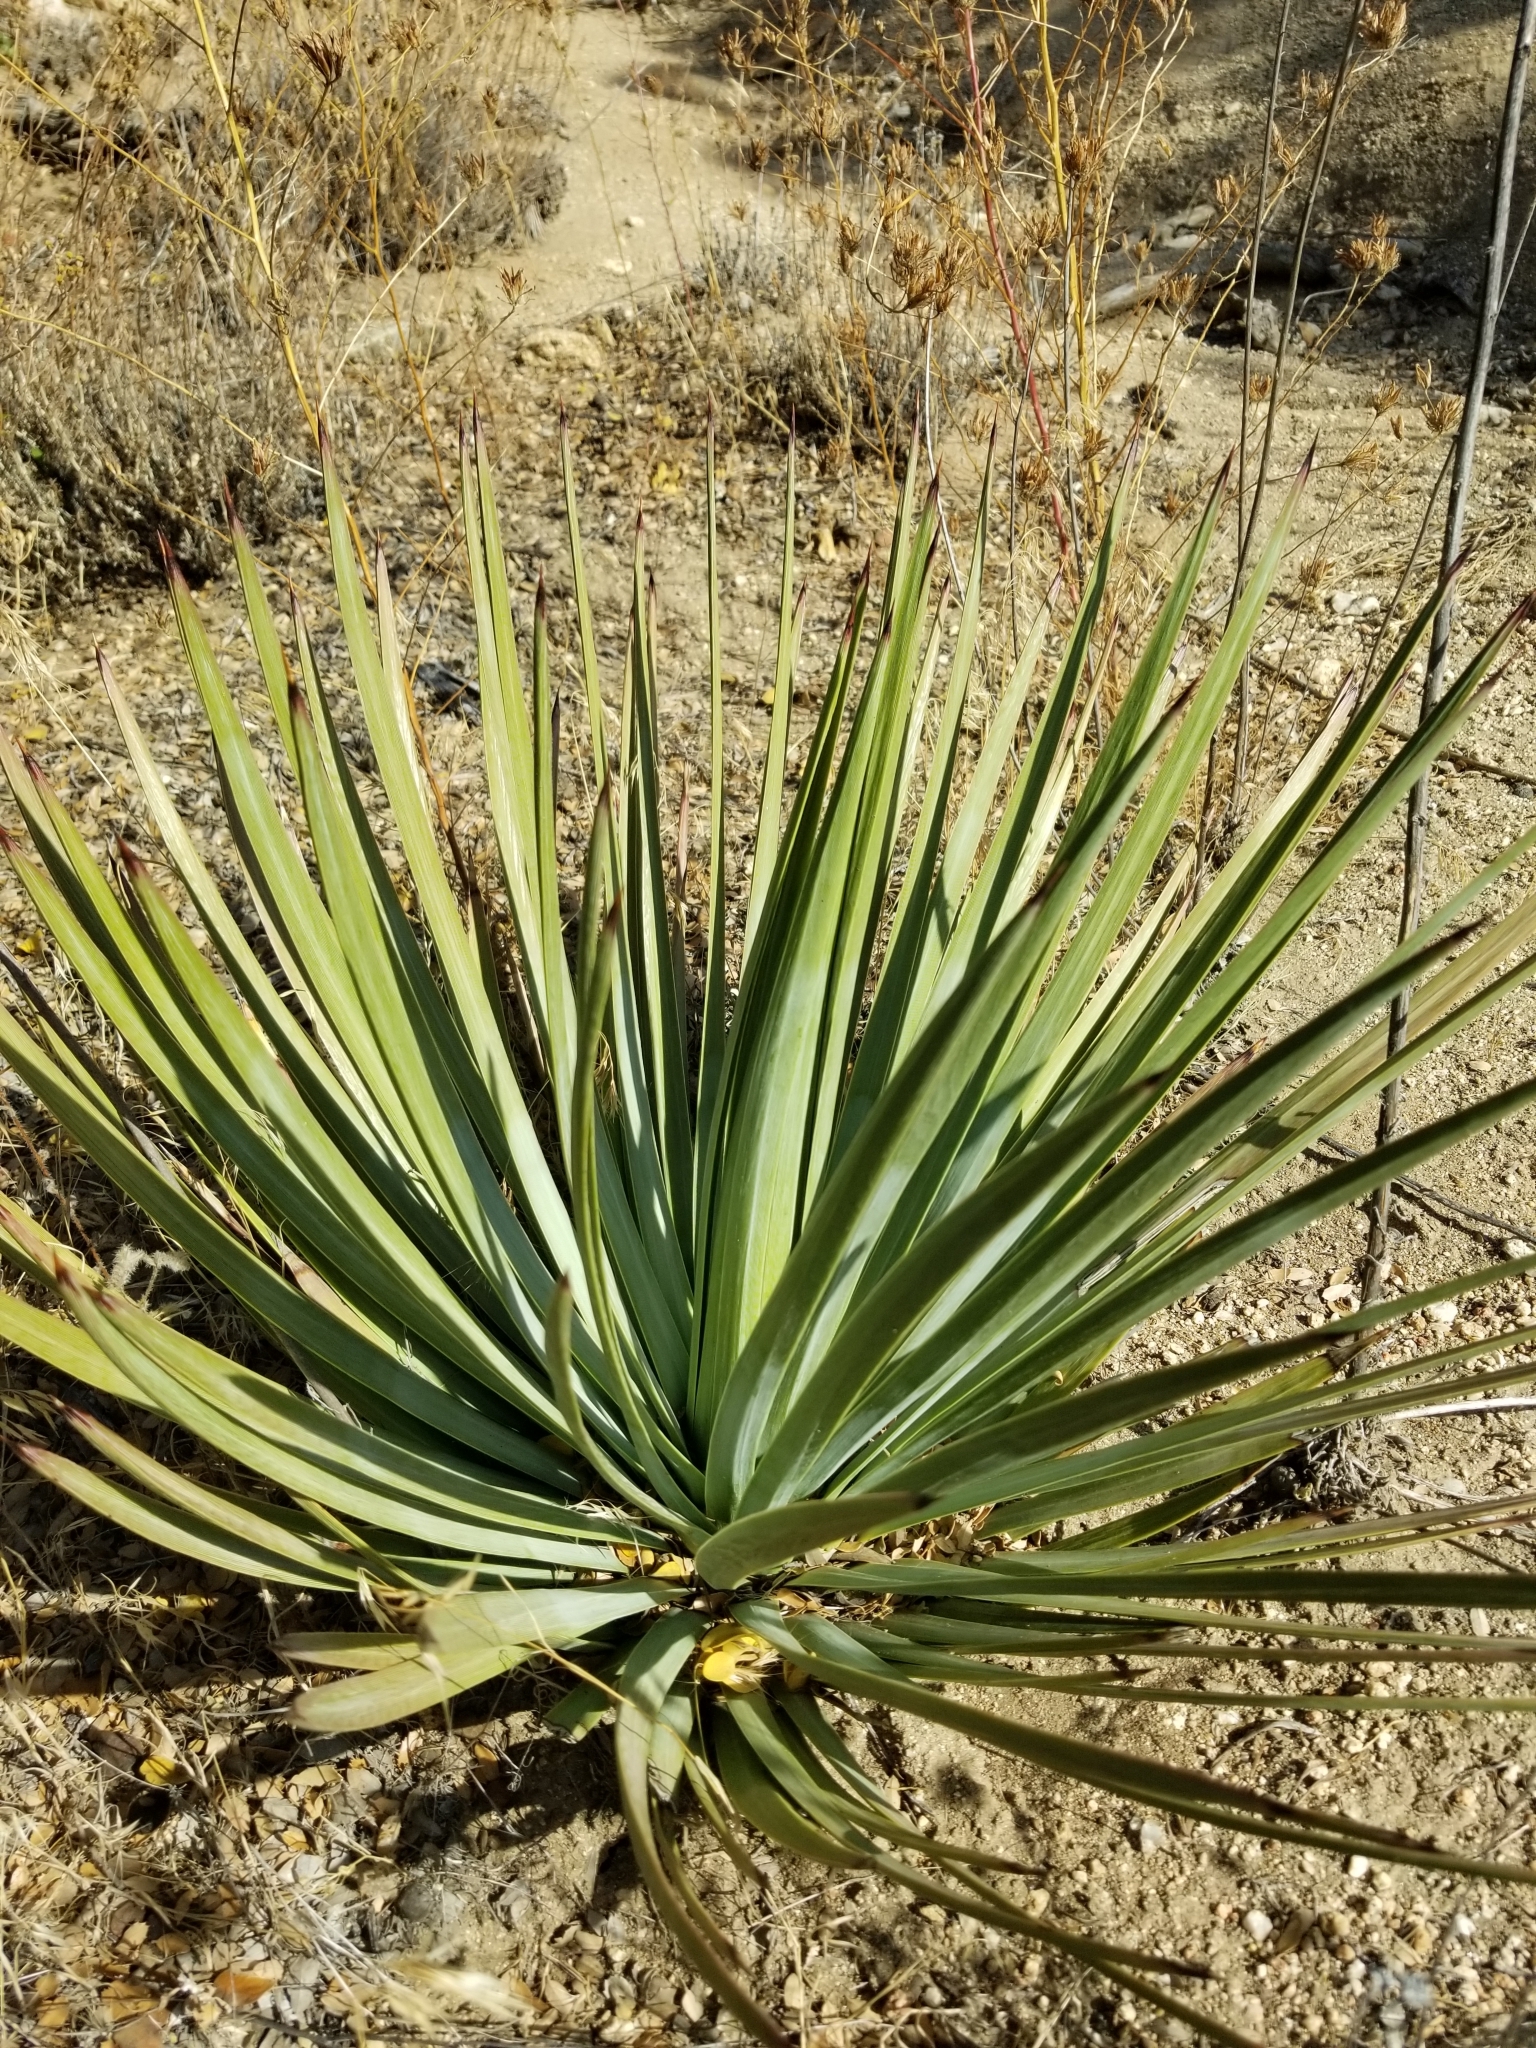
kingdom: Plantae
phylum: Tracheophyta
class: Liliopsida
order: Asparagales
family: Asparagaceae
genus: Hesperoyucca
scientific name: Hesperoyucca whipplei
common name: Our lord's-candle
